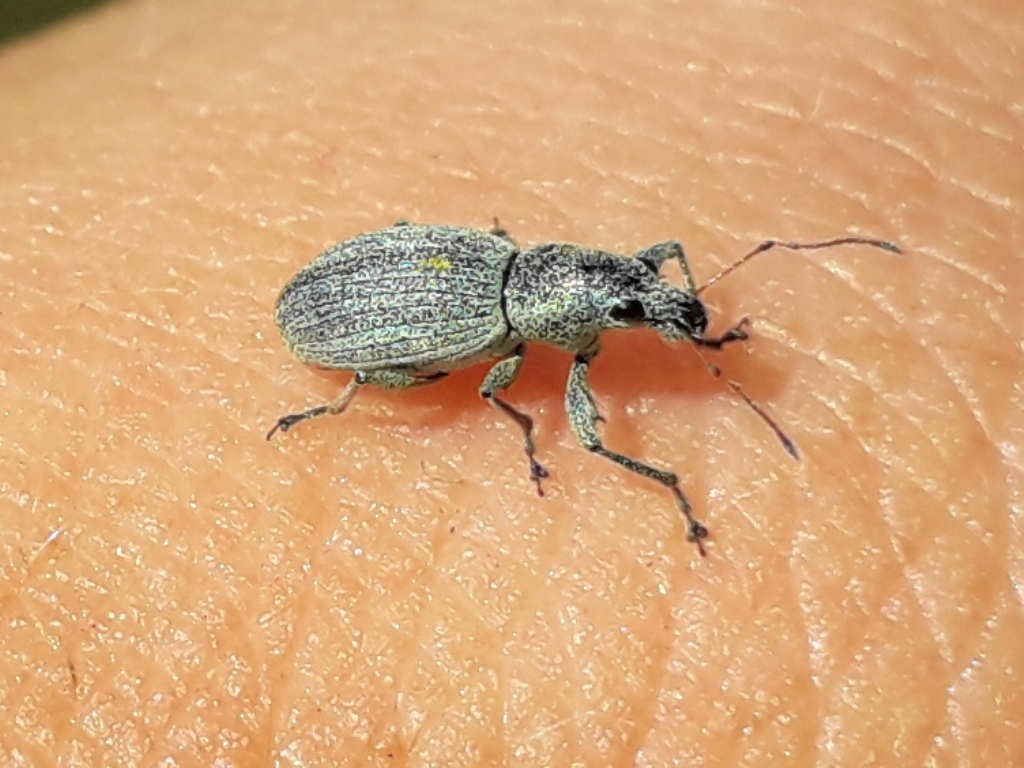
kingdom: Animalia
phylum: Arthropoda
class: Insecta
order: Coleoptera
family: Curculionidae
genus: Eusomus
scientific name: Eusomus ovulum
